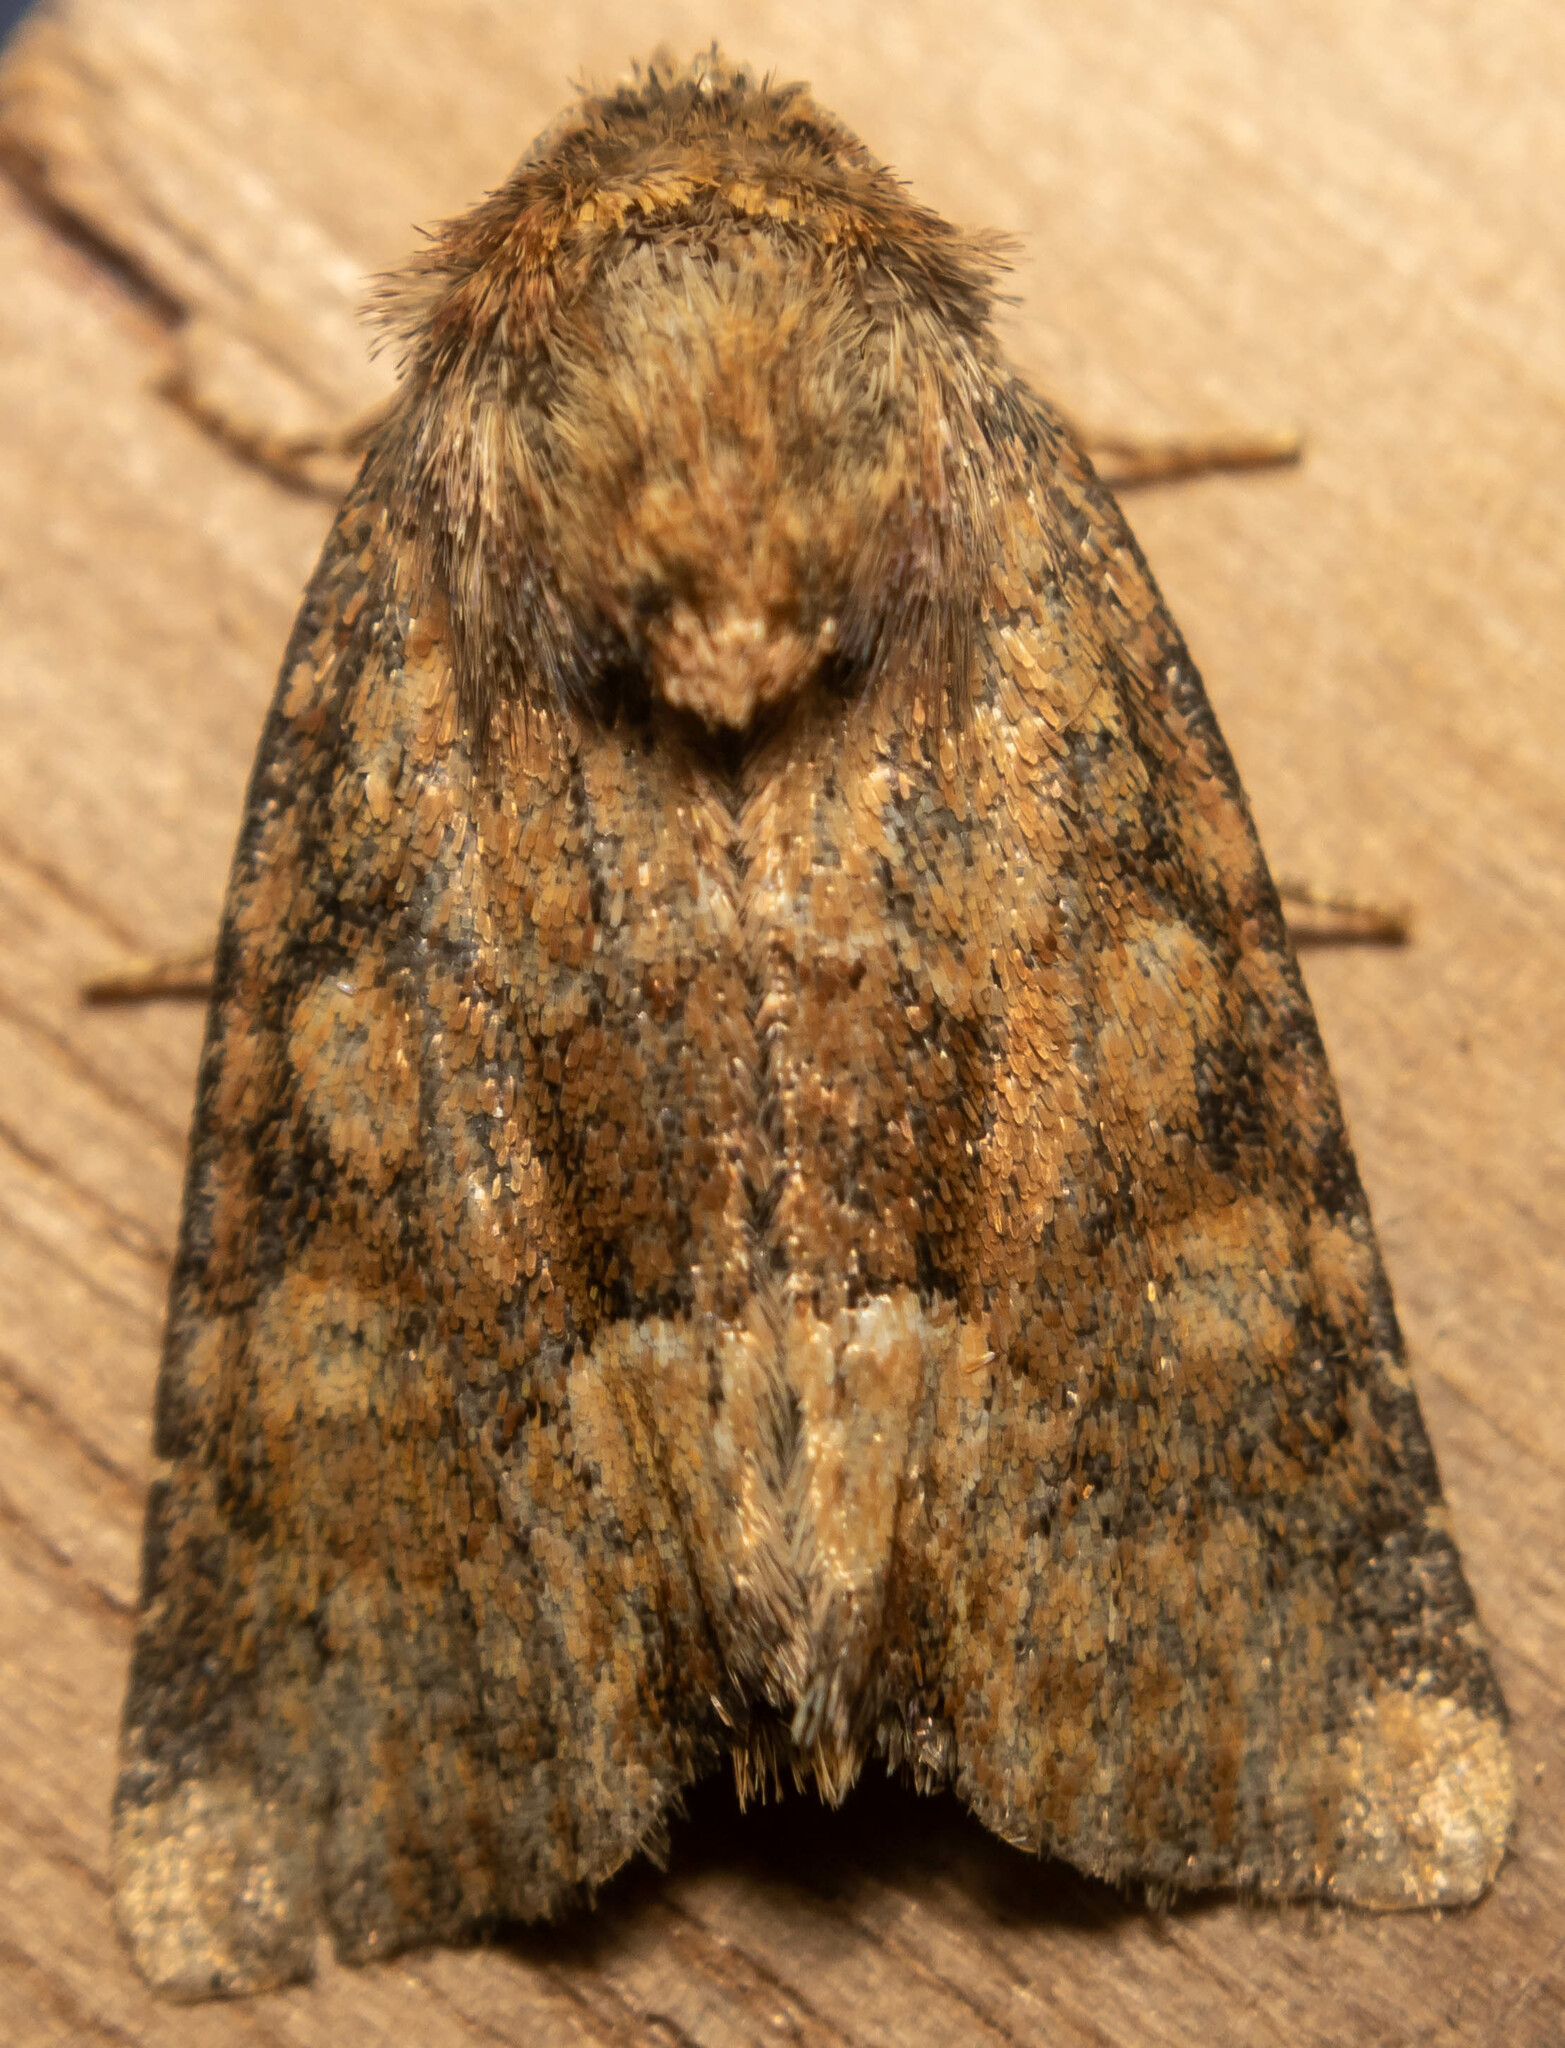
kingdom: Animalia
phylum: Arthropoda
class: Insecta
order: Lepidoptera
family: Noctuidae
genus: Oligia
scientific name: Oligia fasciuncula
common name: Middle-barred minor
